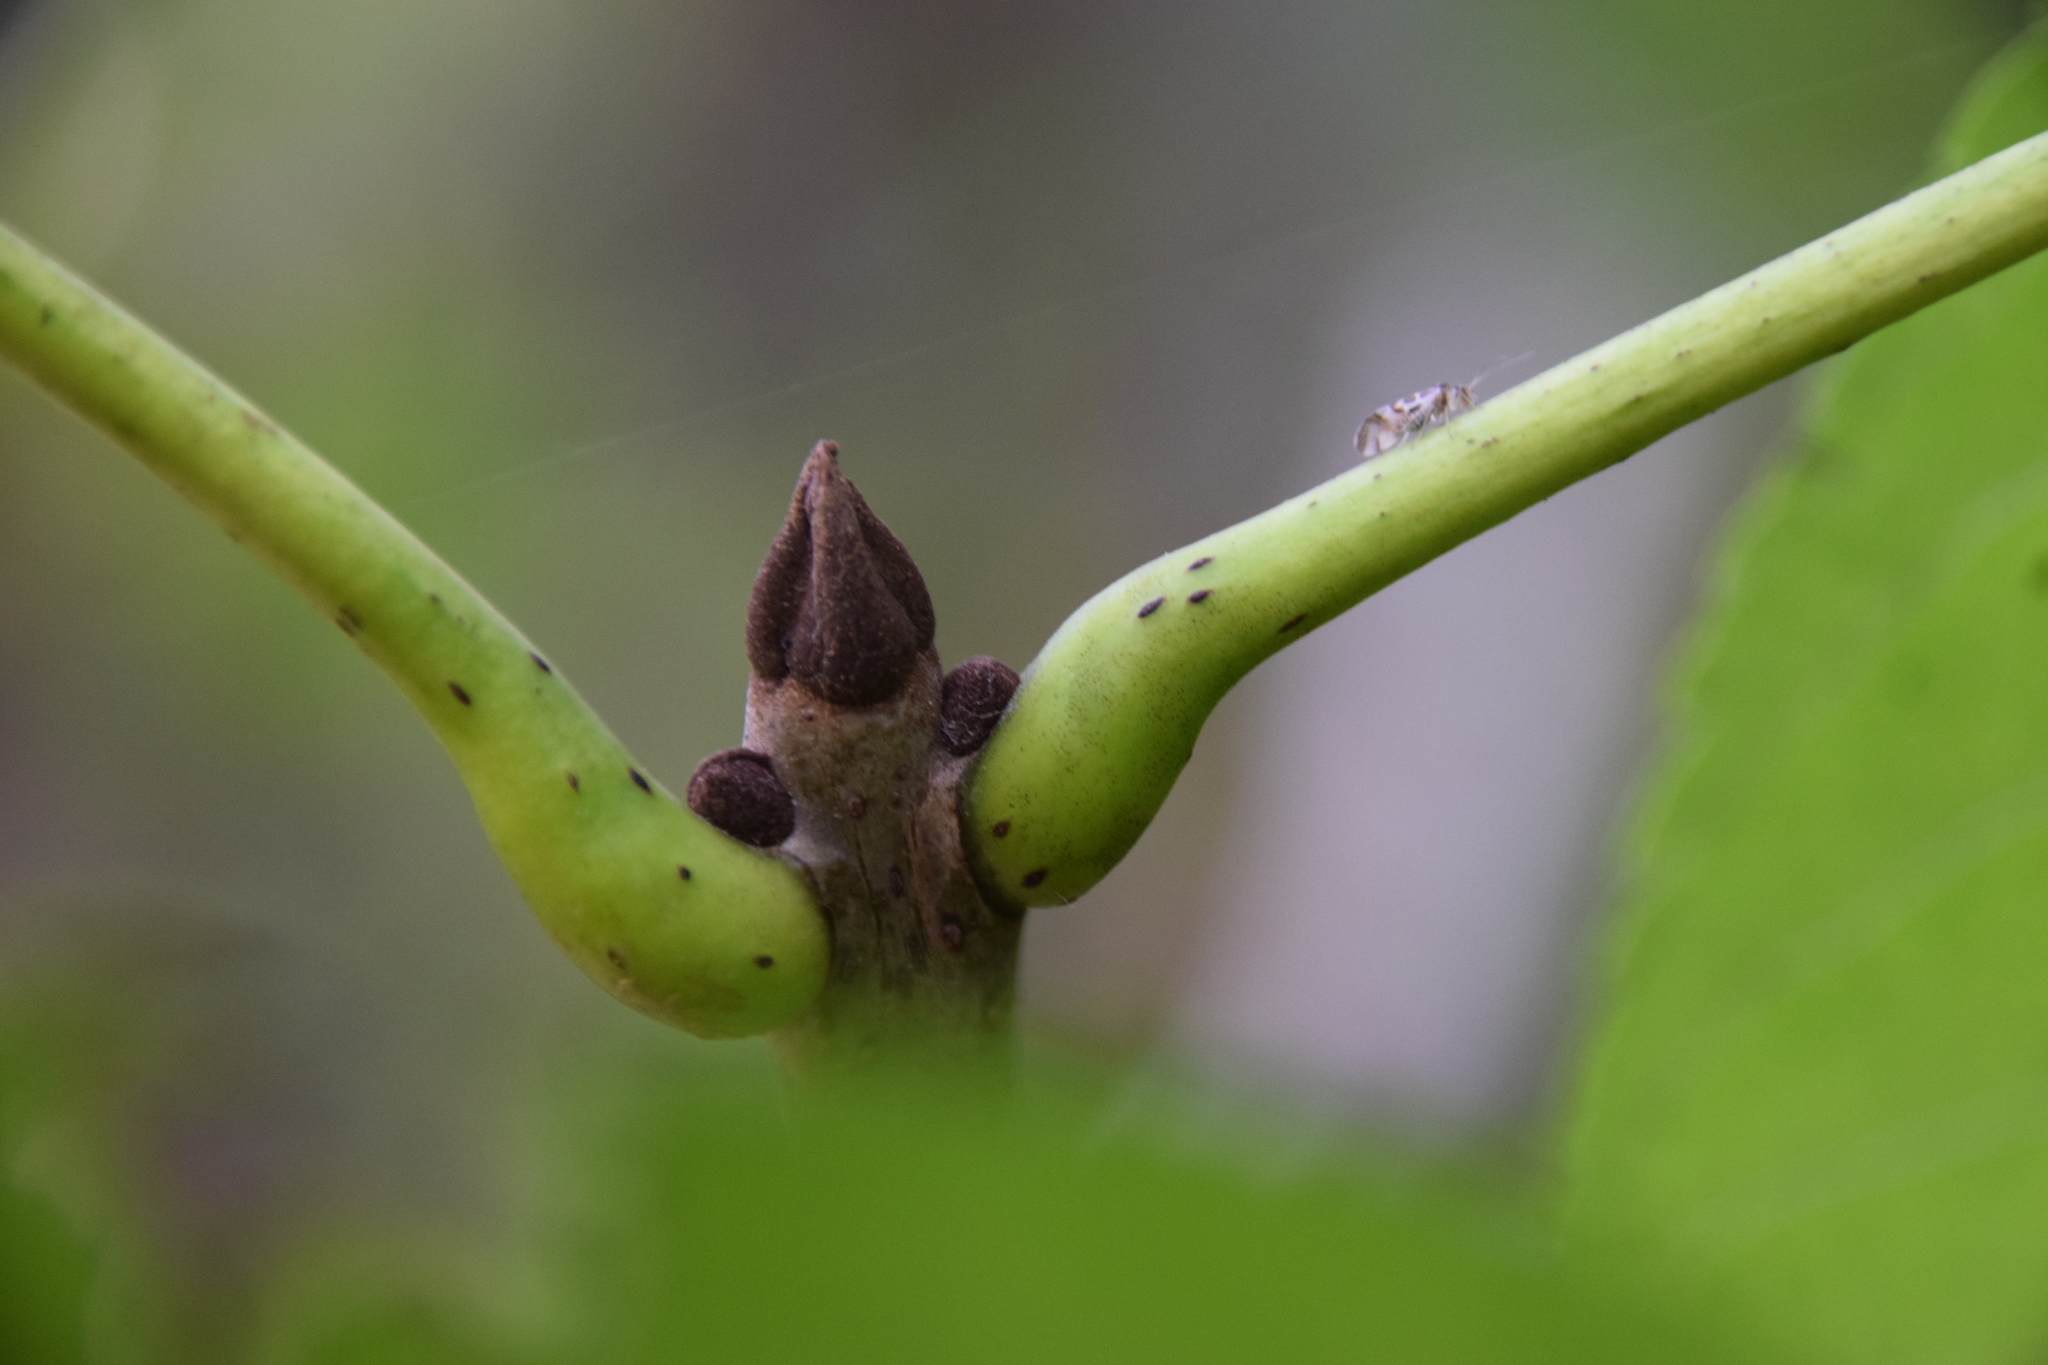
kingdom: Plantae
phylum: Tracheophyta
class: Magnoliopsida
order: Lamiales
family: Oleaceae
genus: Fraxinus
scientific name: Fraxinus nigra
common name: Black ash
